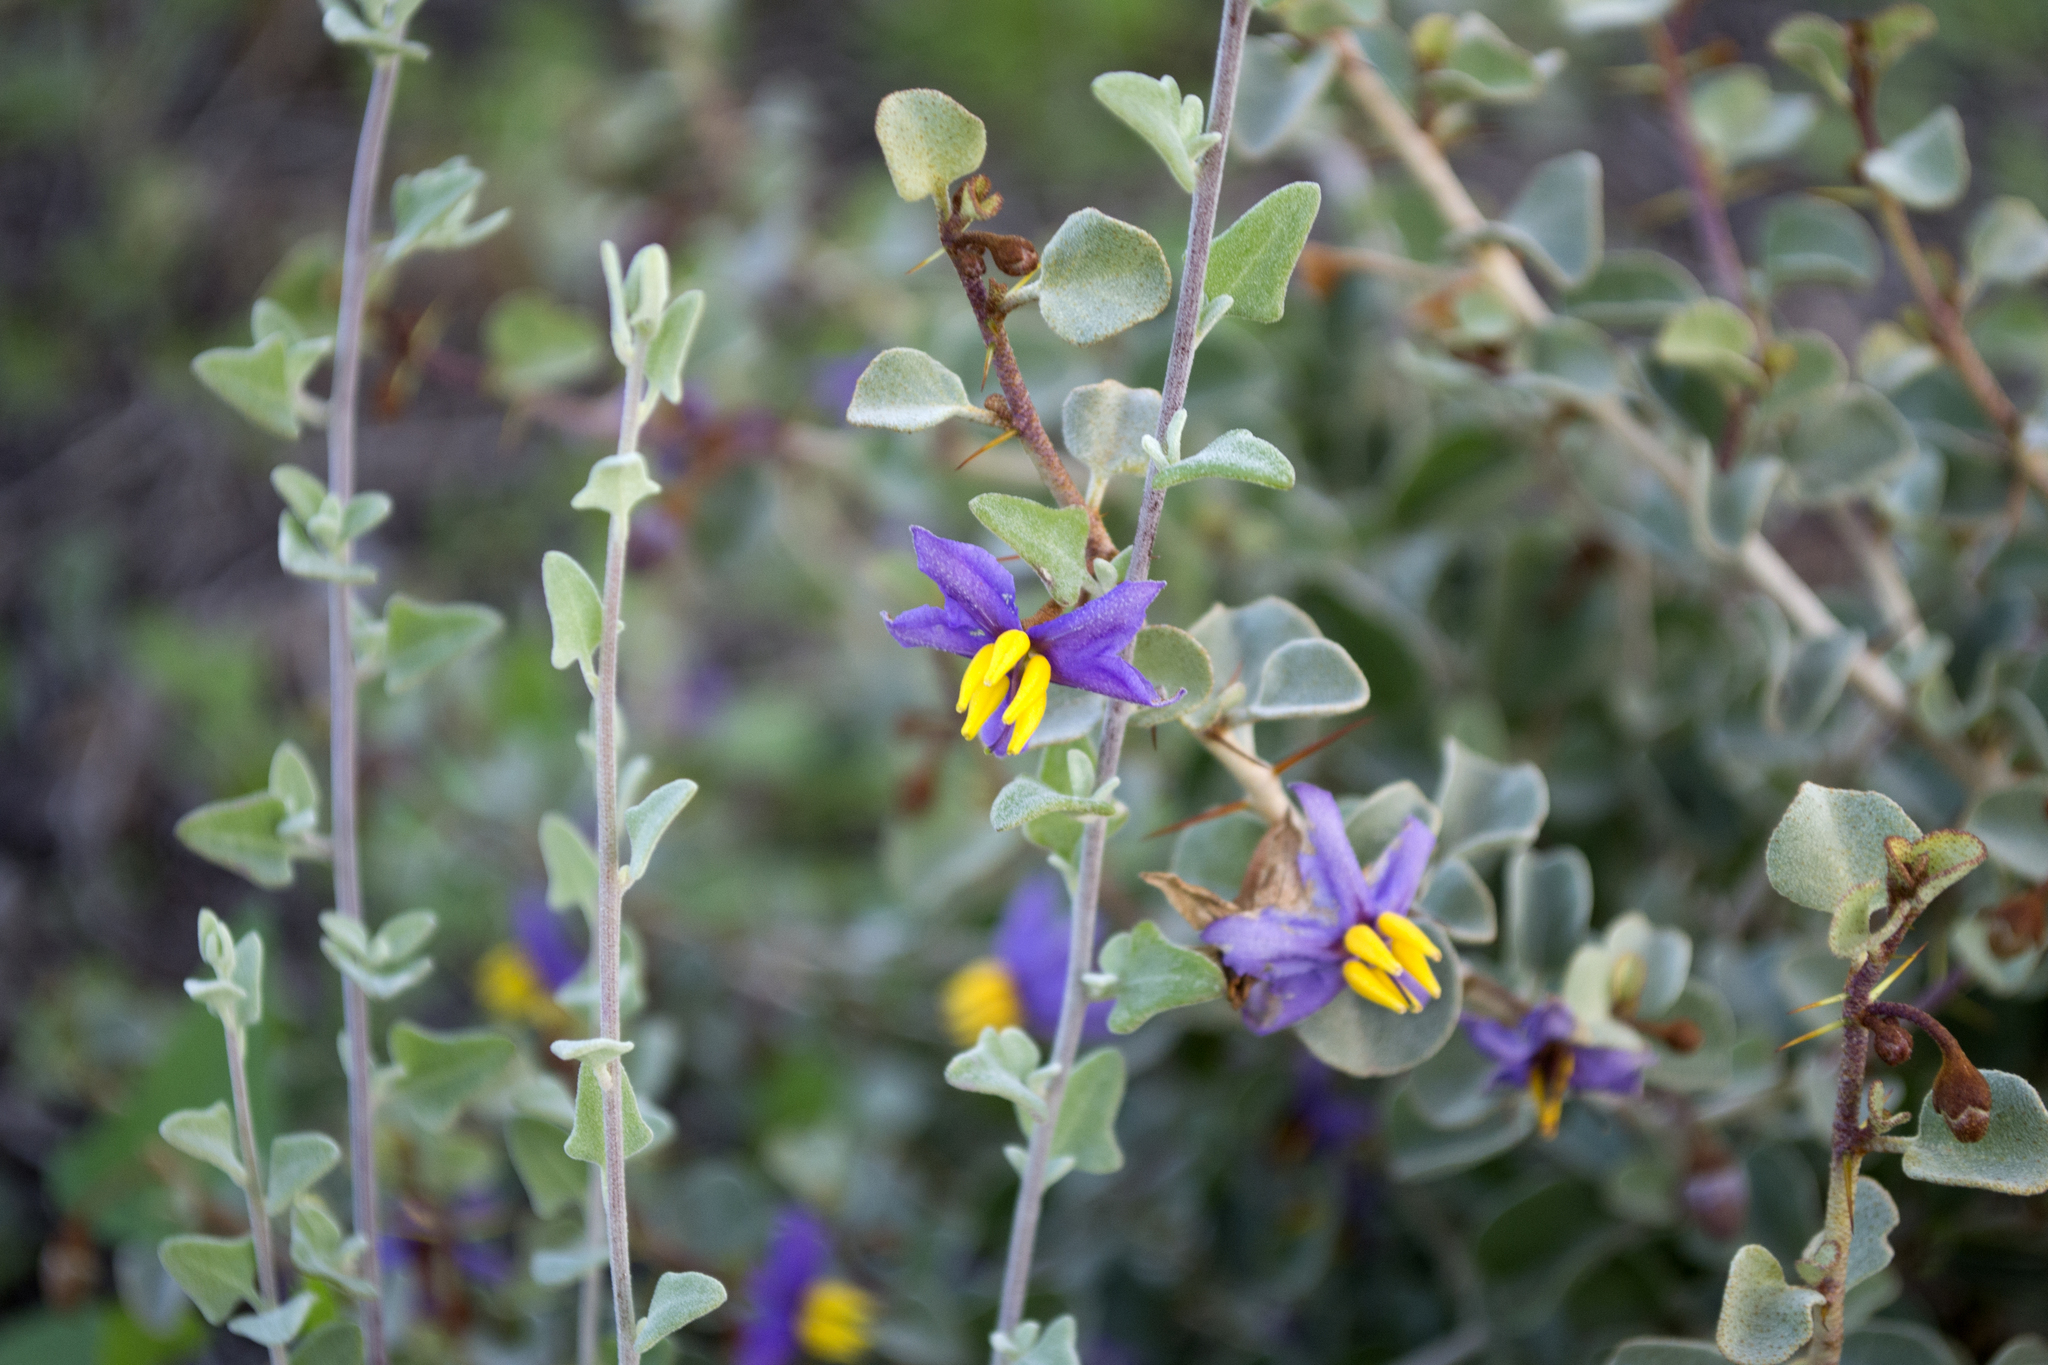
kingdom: Plantae
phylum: Tracheophyta
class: Magnoliopsida
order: Solanales
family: Solanaceae
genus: Solanum
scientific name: Solanum nummularium
